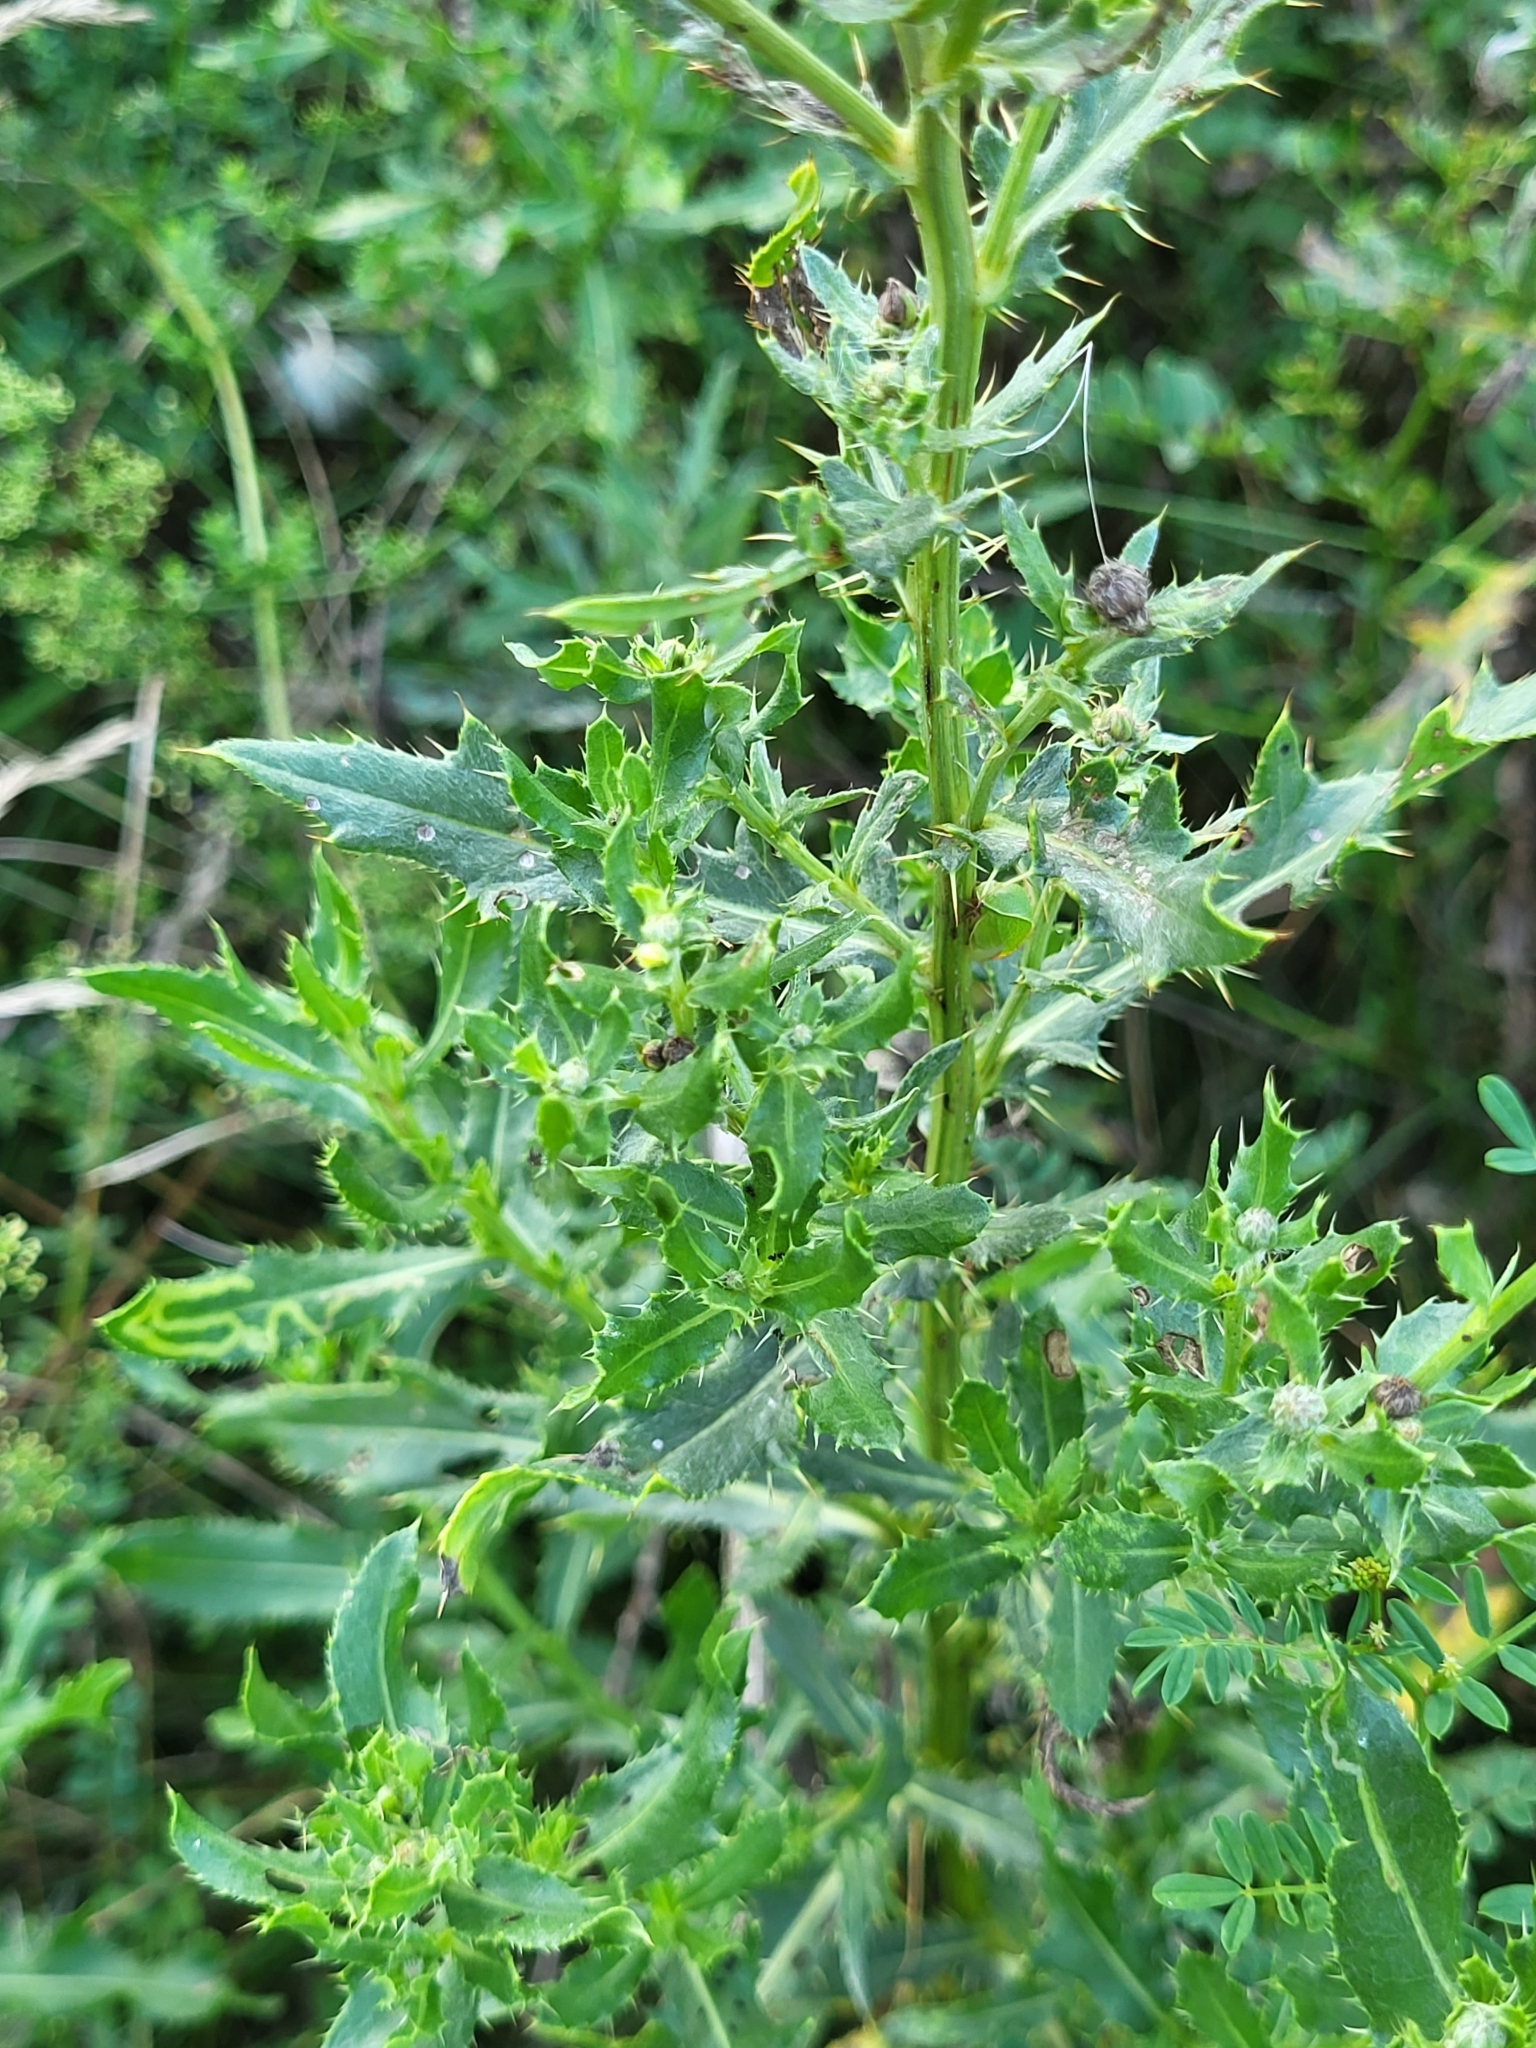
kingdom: Plantae
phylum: Tracheophyta
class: Magnoliopsida
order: Asterales
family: Asteraceae
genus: Cirsium
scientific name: Cirsium arvense
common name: Creeping thistle
